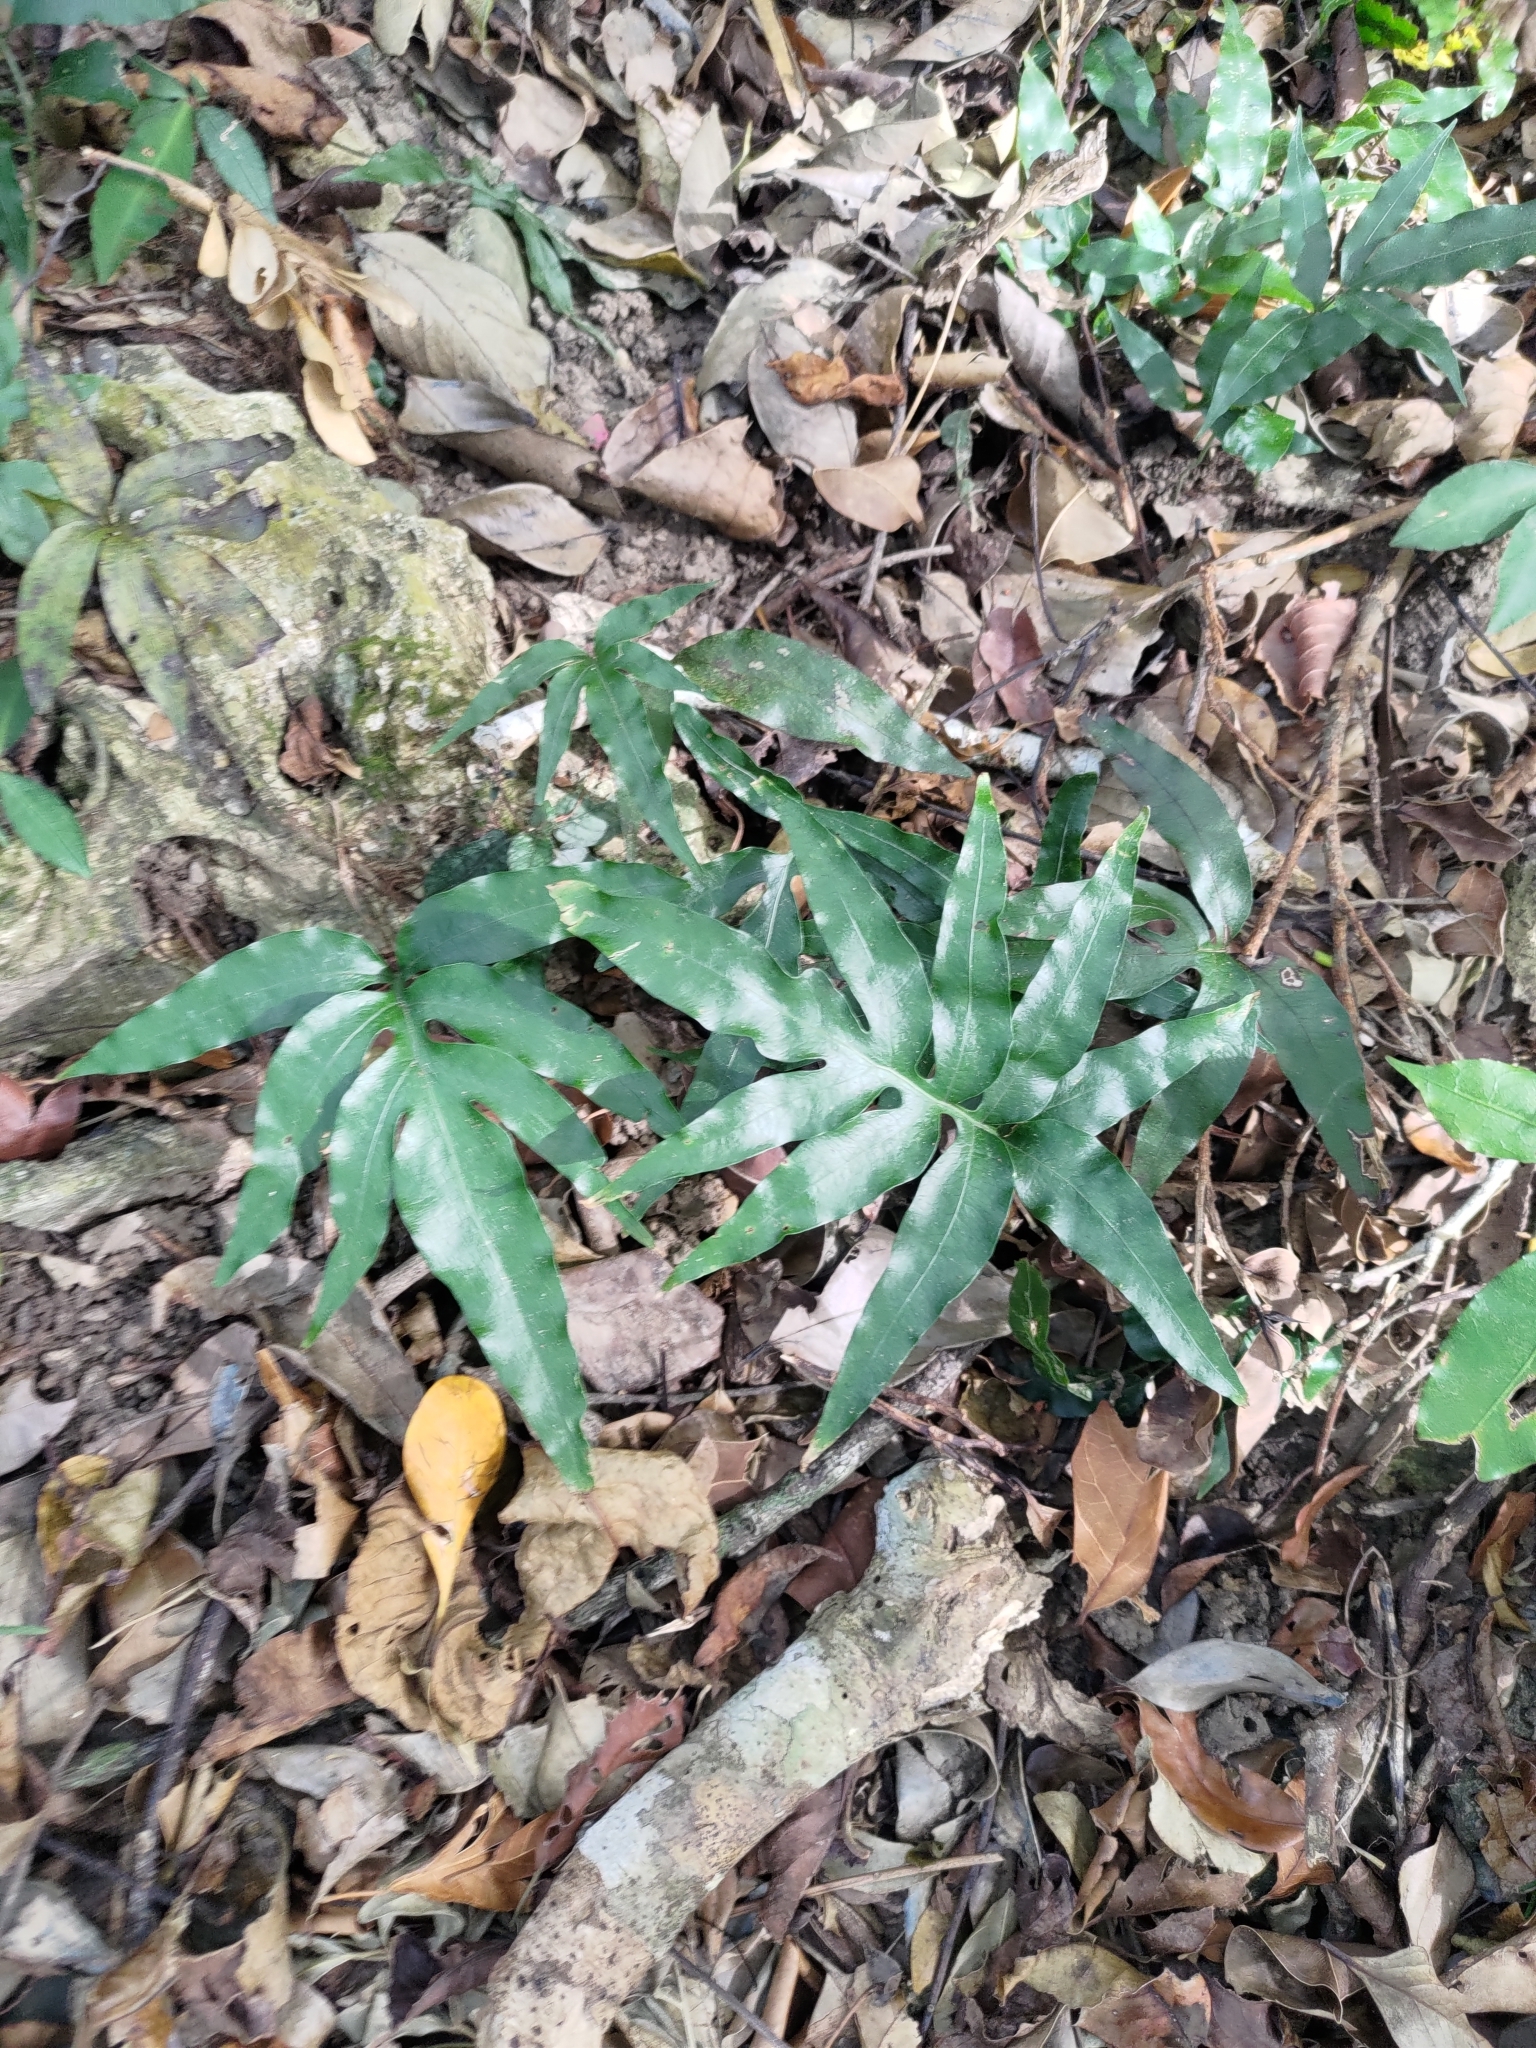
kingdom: Plantae
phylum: Tracheophyta
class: Polypodiopsida
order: Polypodiales
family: Polypodiaceae
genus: Leptochilus
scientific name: Leptochilus ellipticus
